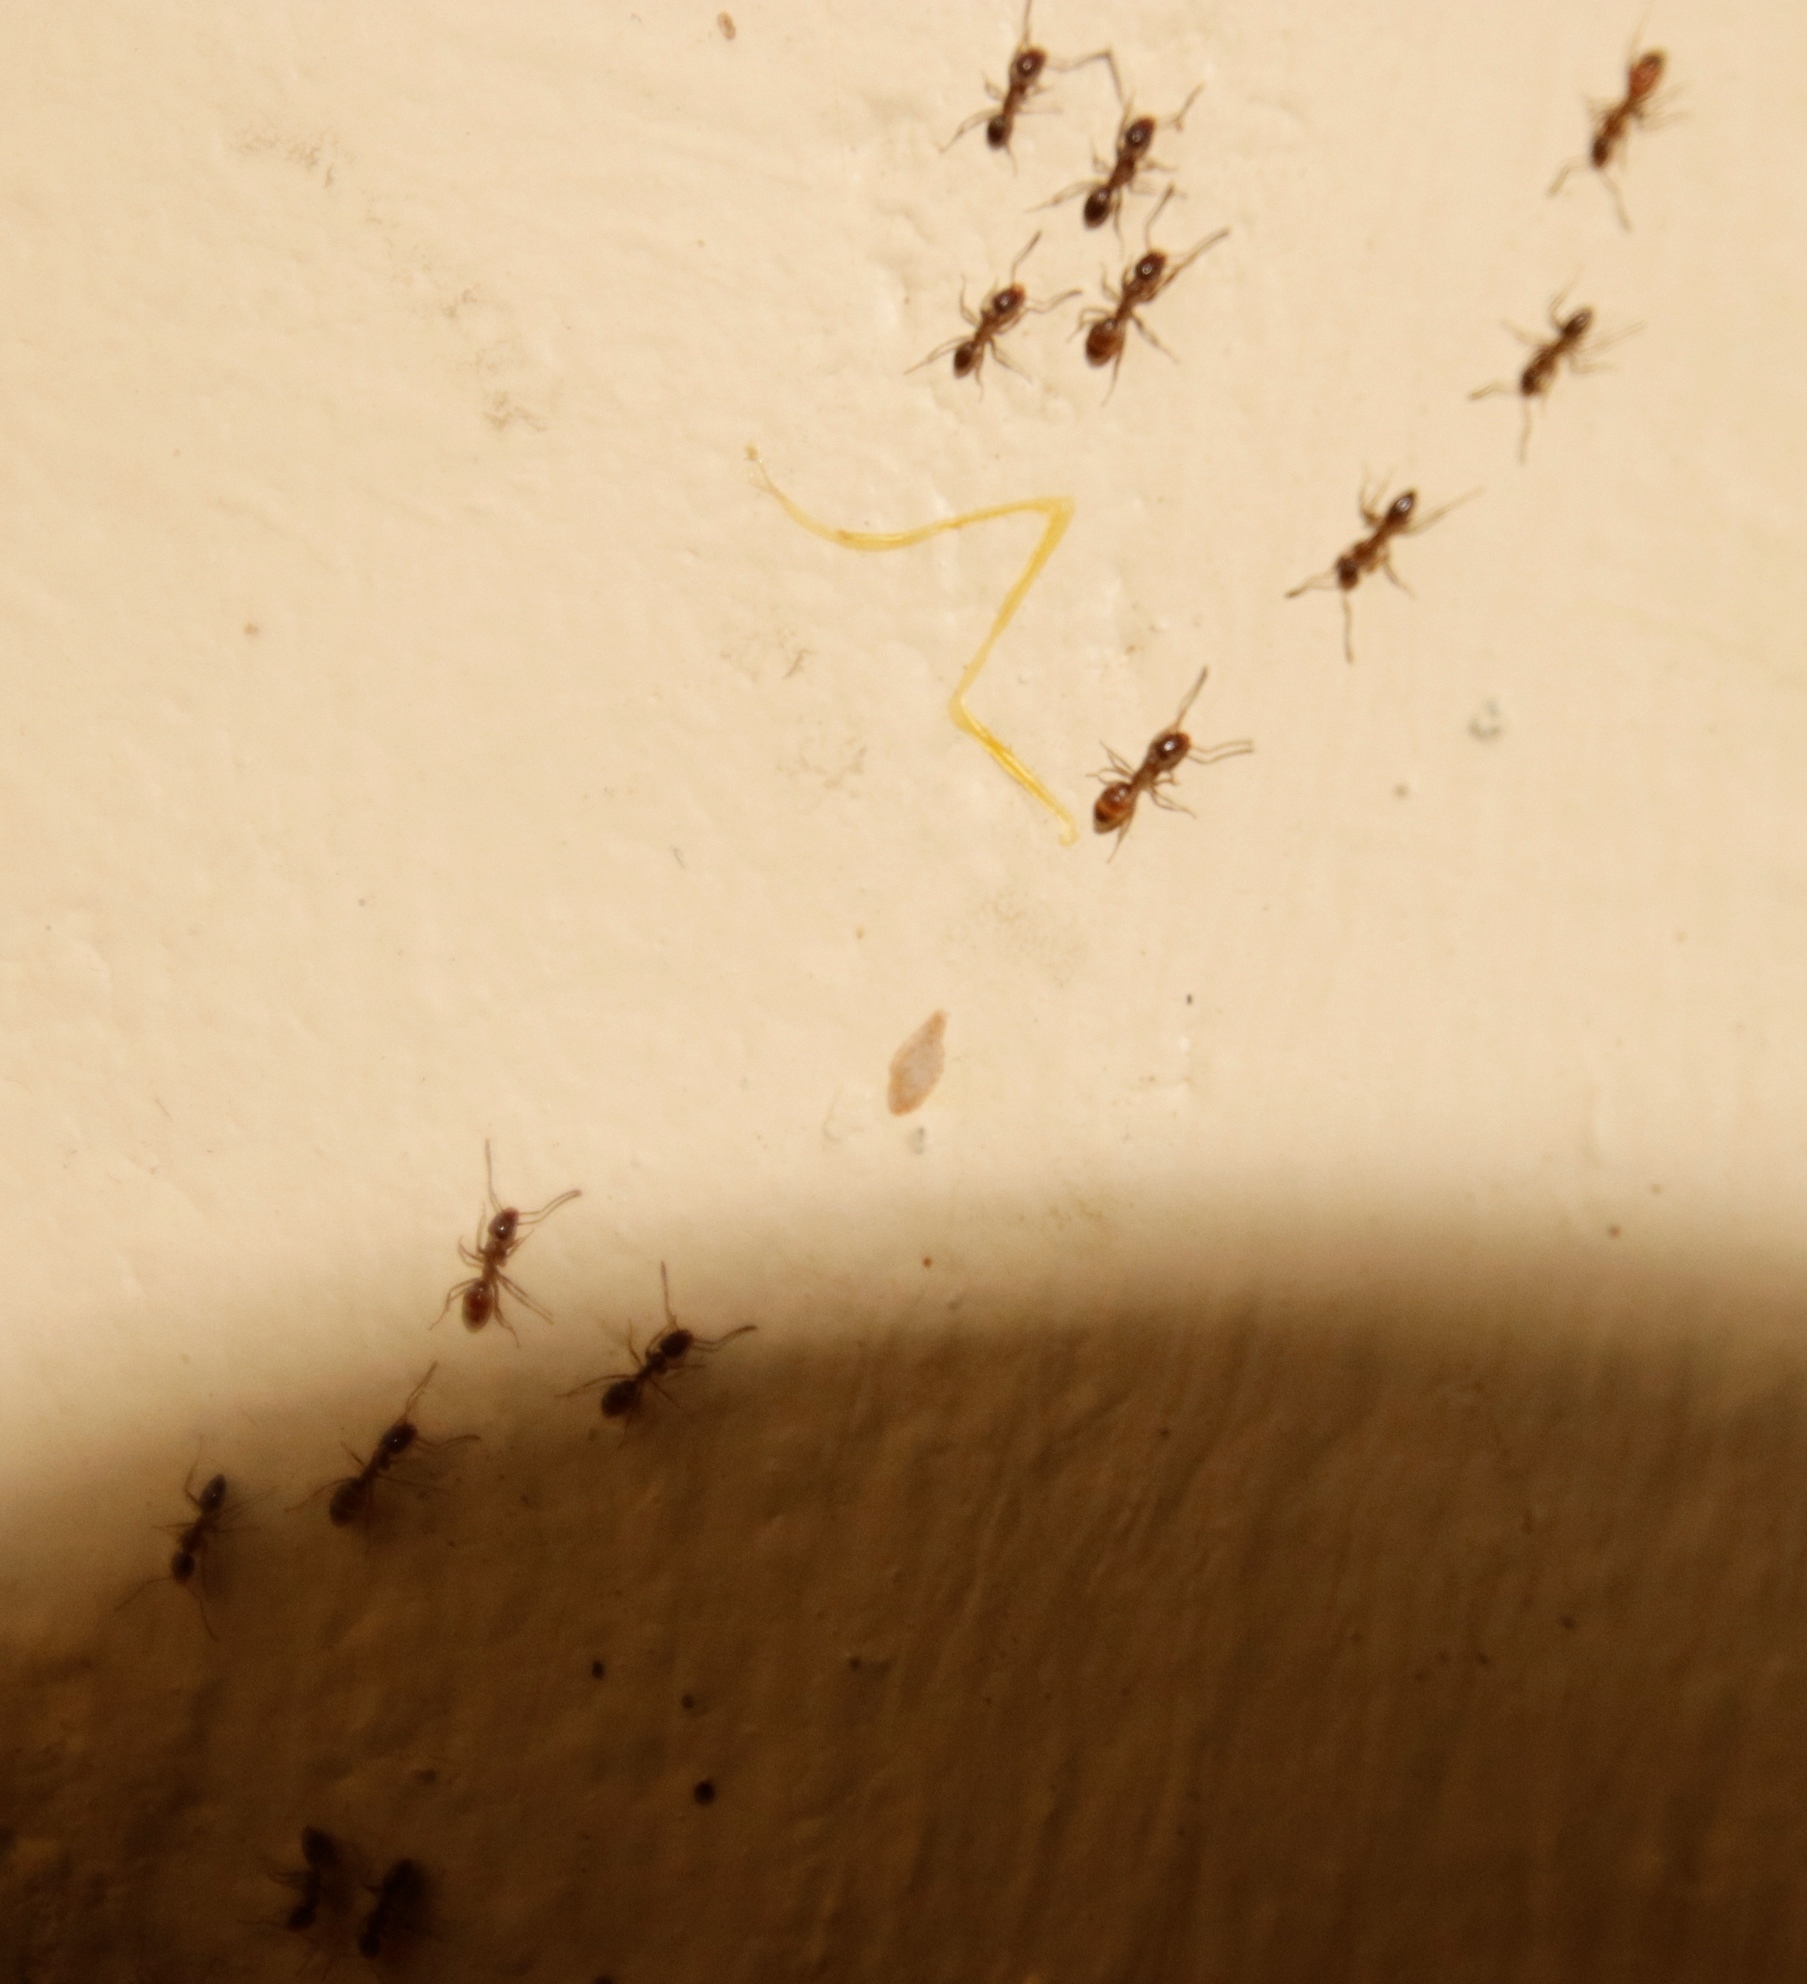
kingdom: Animalia
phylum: Arthropoda
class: Insecta
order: Hymenoptera
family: Formicidae
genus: Linepithema
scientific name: Linepithema humile
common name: Argentine ant
